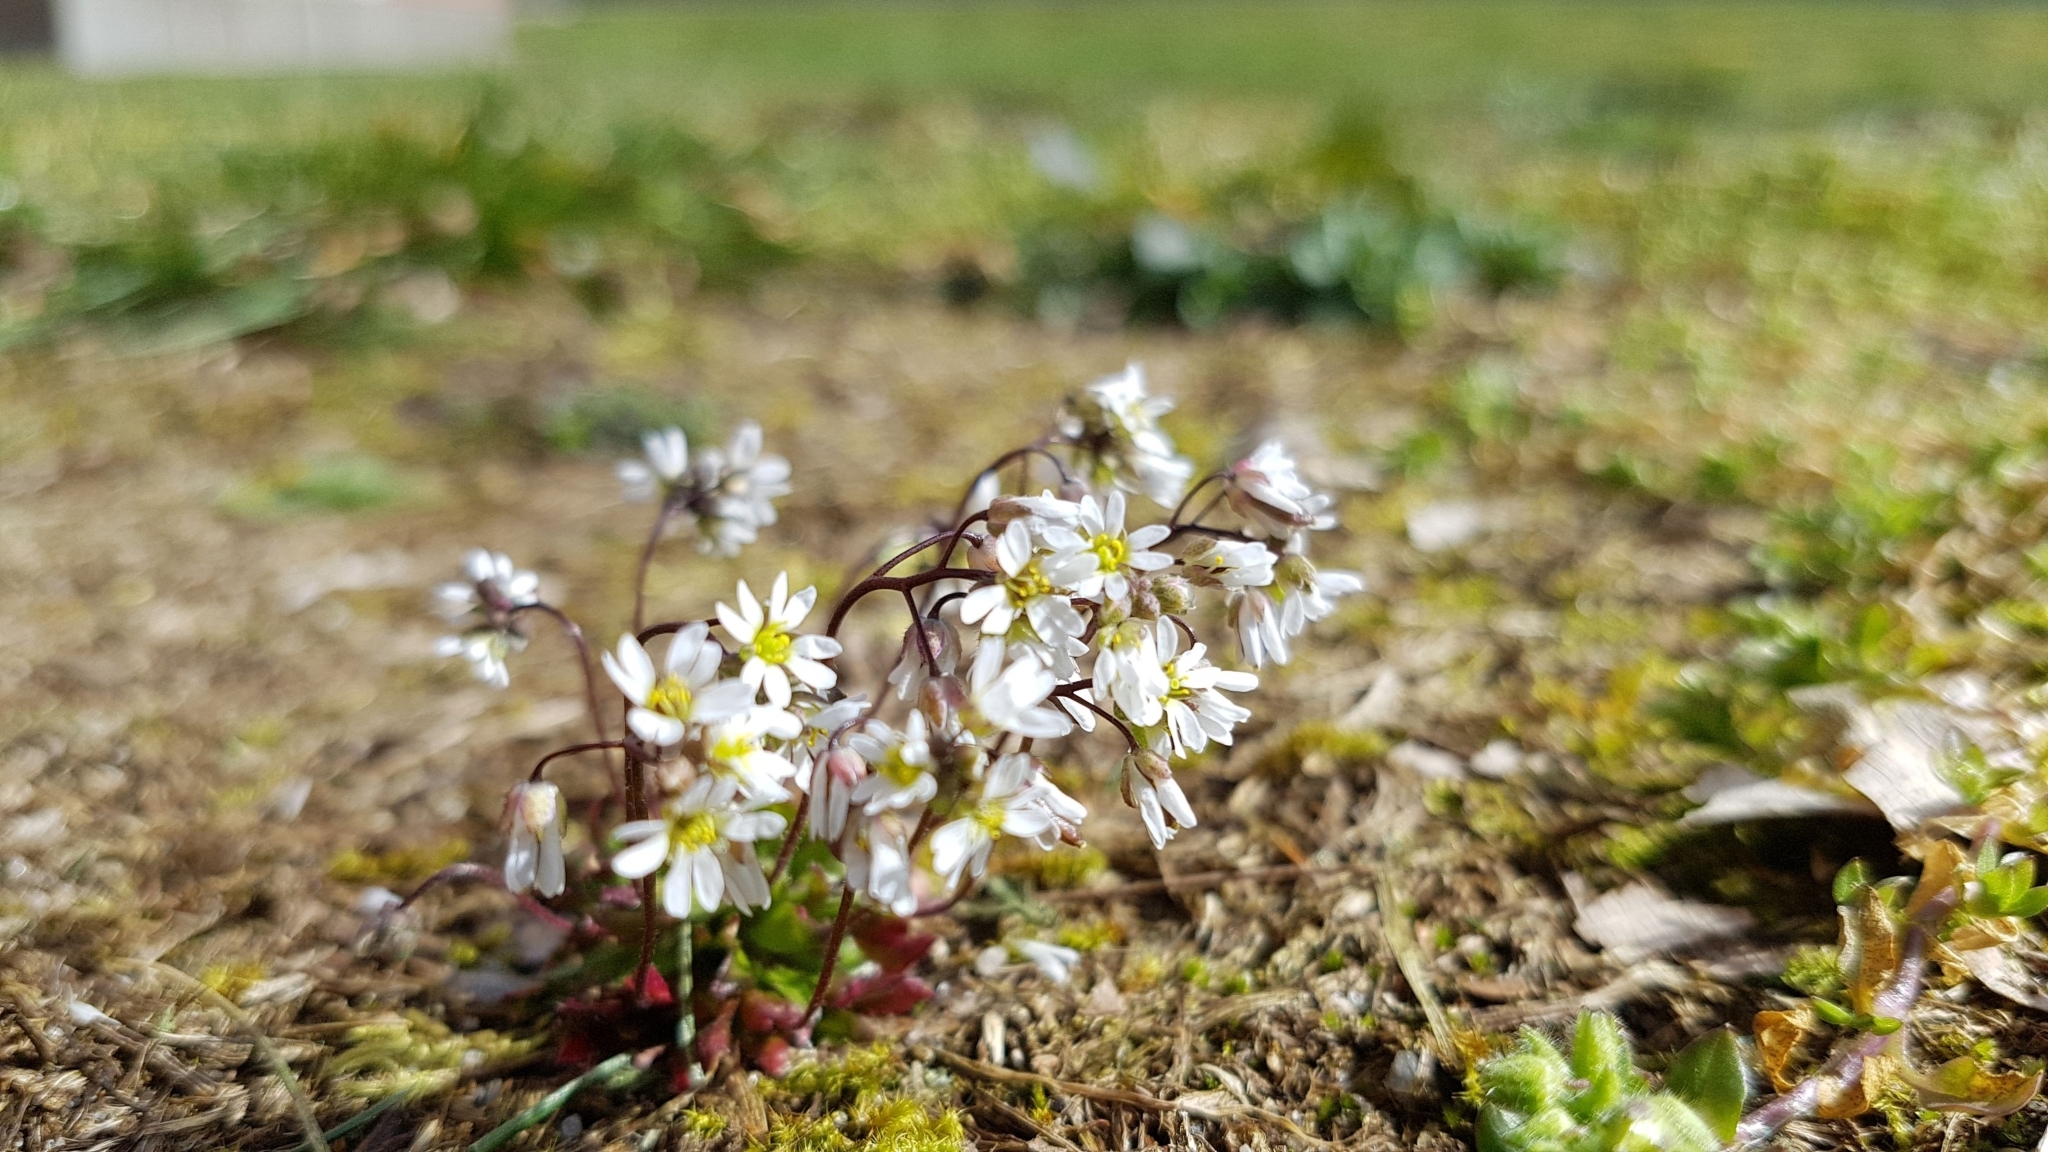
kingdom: Plantae
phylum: Tracheophyta
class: Magnoliopsida
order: Brassicales
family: Brassicaceae
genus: Draba
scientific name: Draba verna
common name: Spring draba
